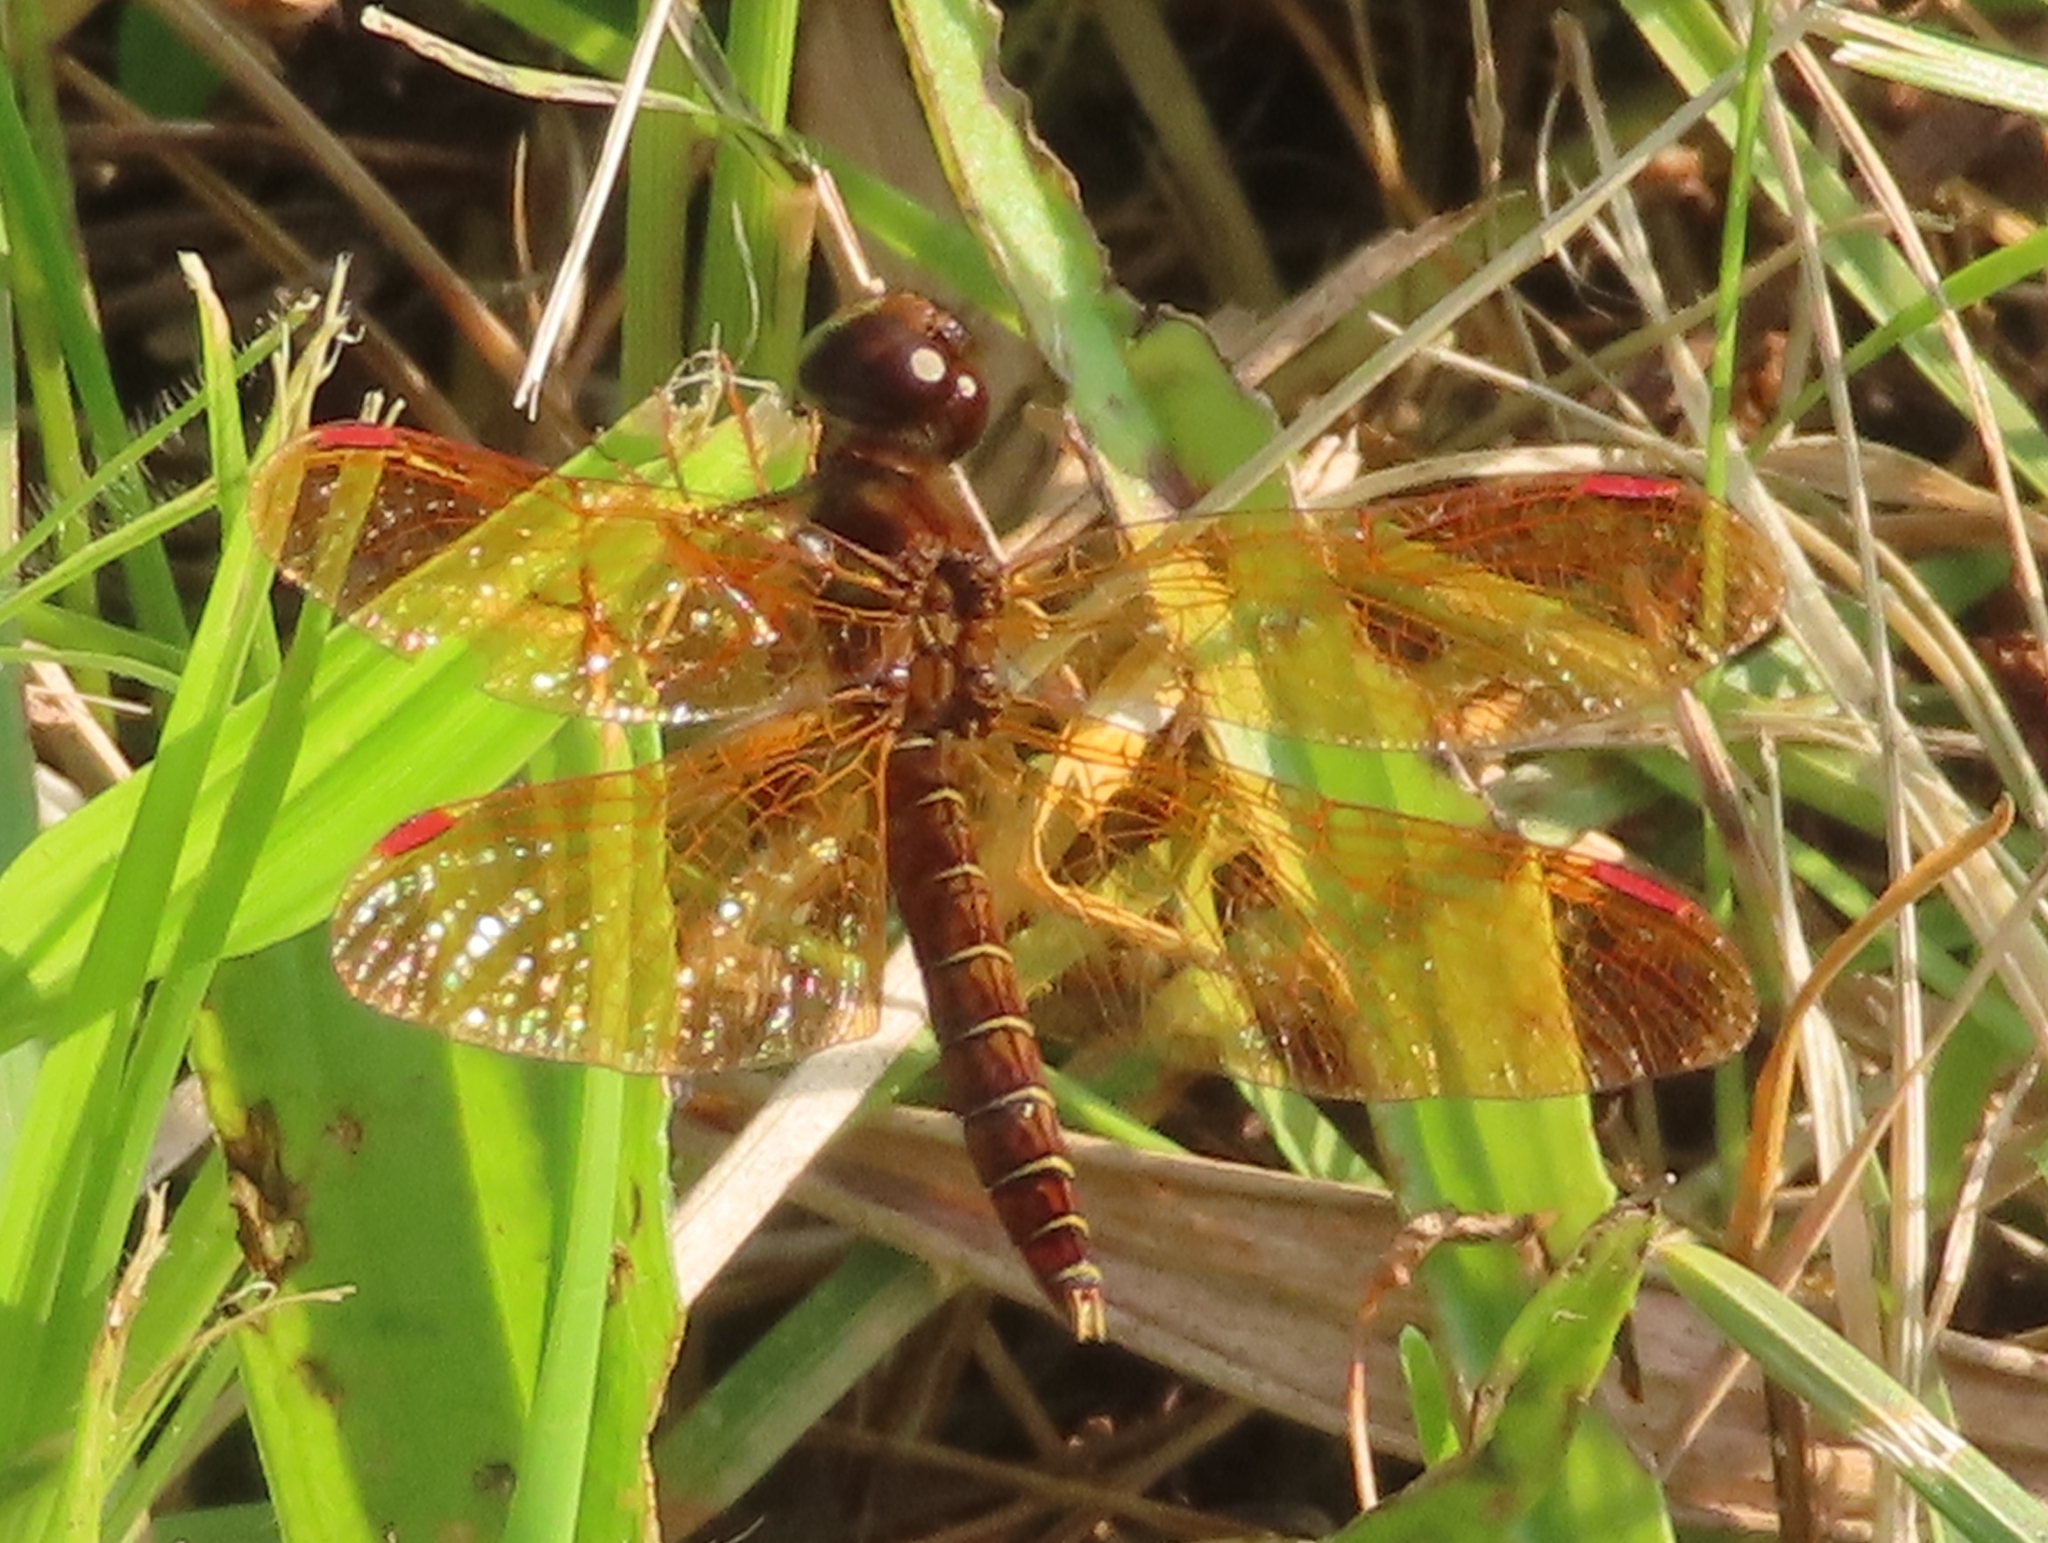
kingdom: Animalia
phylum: Arthropoda
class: Insecta
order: Odonata
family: Libellulidae
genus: Perithemis
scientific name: Perithemis tenera
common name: Eastern amberwing
